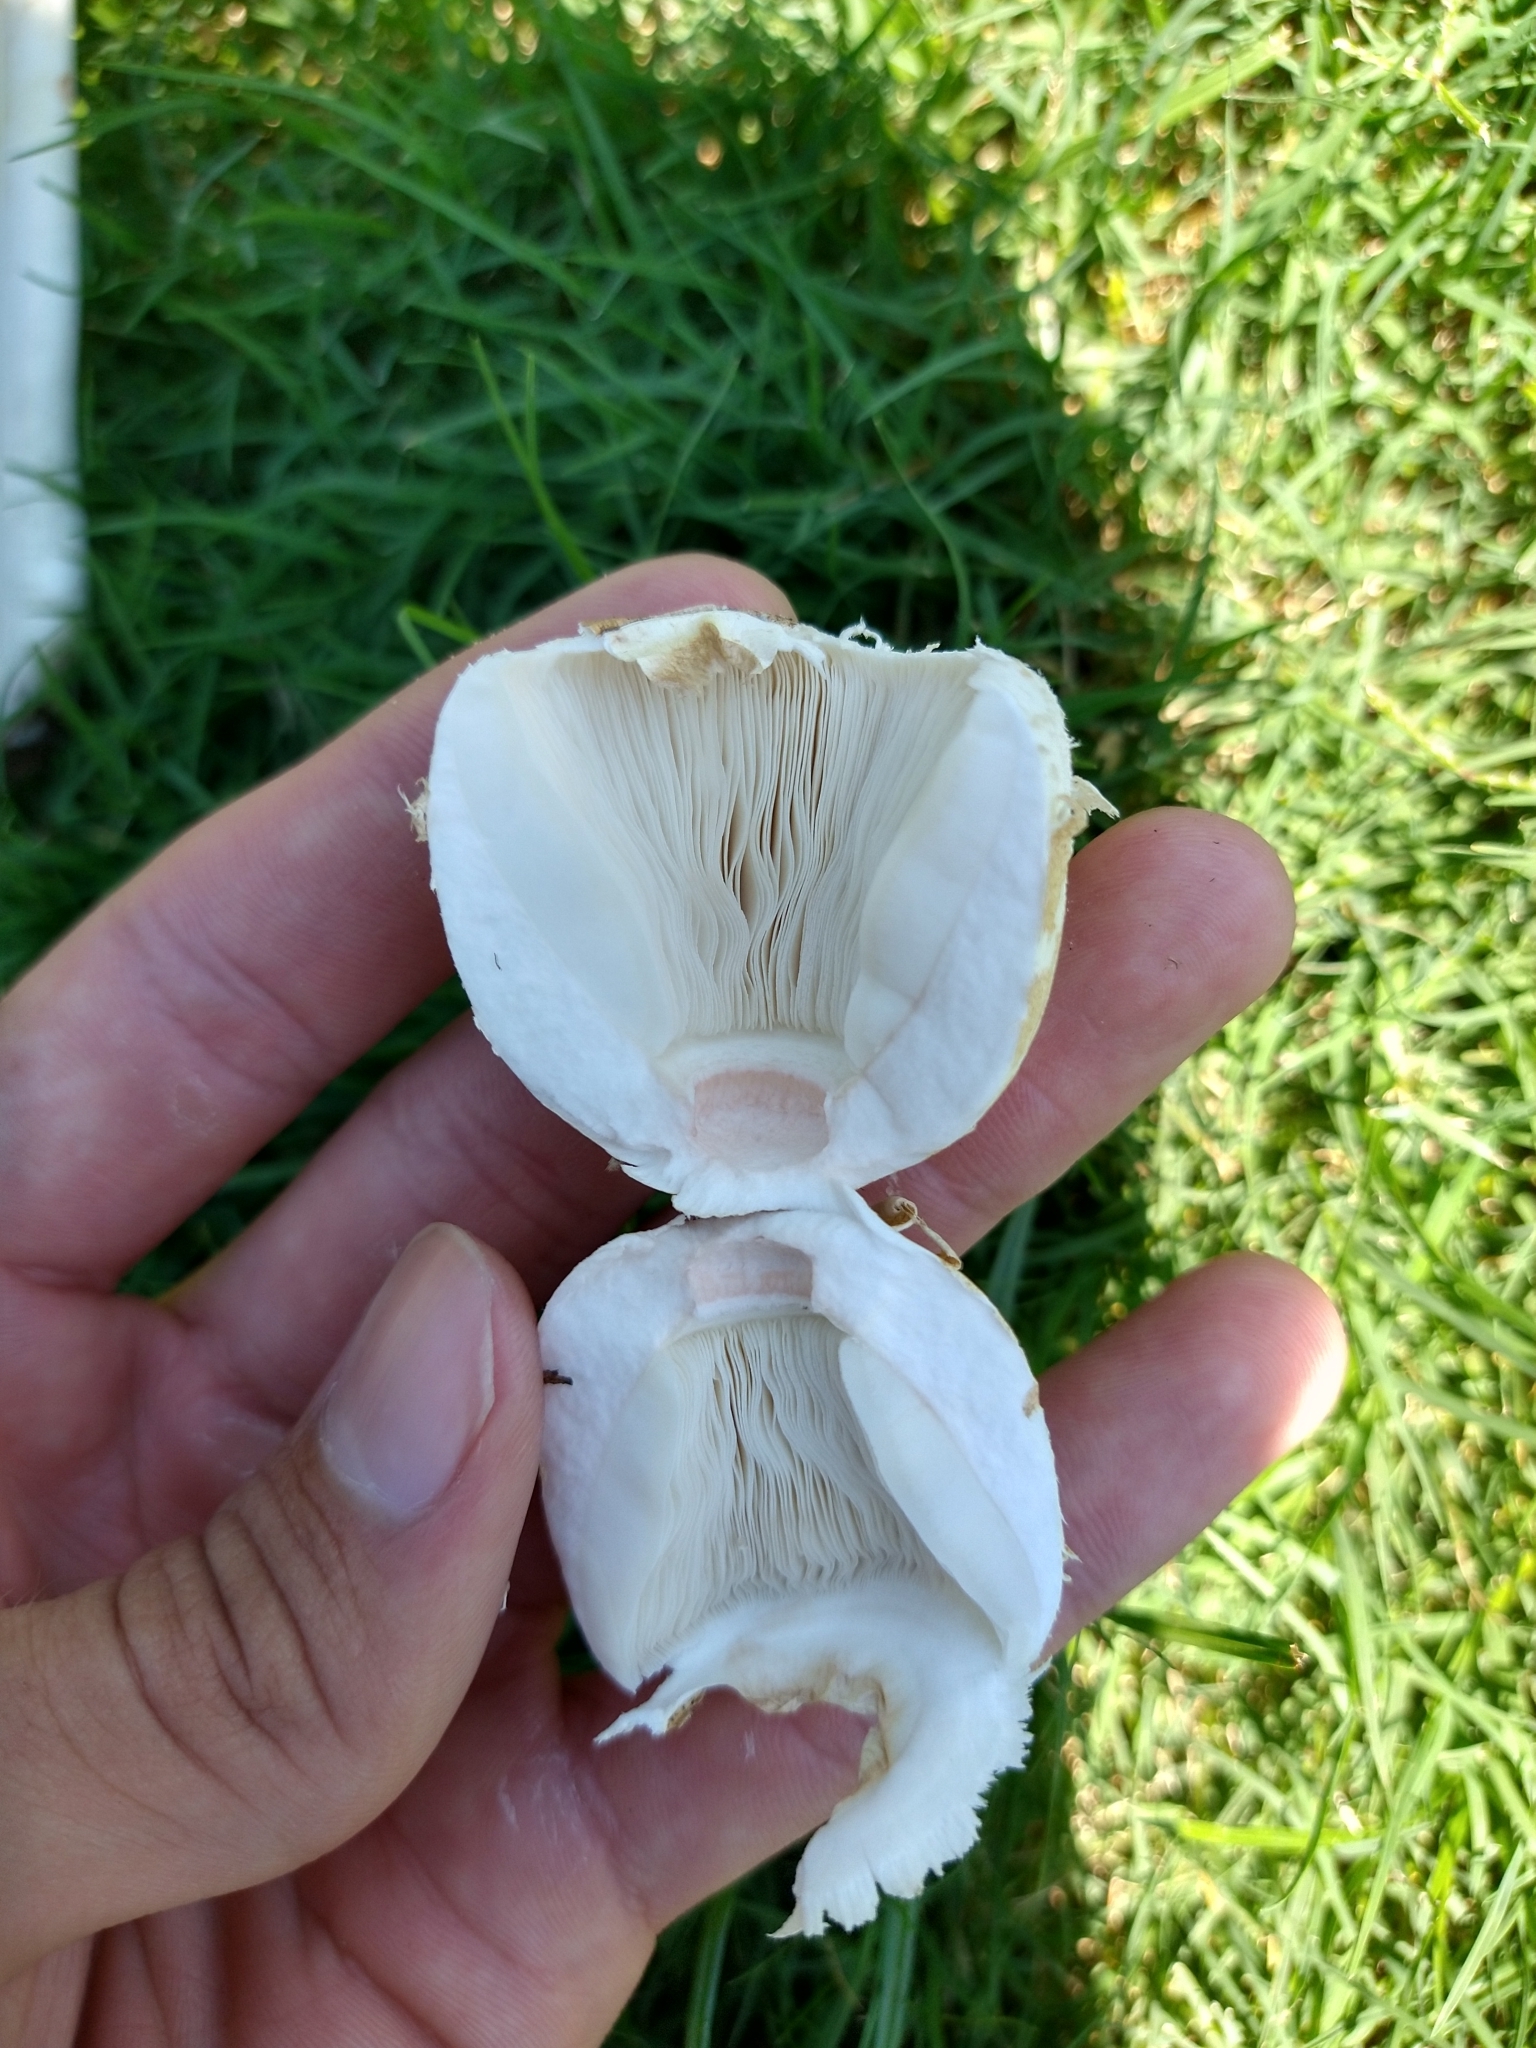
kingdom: Fungi
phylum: Basidiomycota
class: Agaricomycetes
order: Agaricales
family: Agaricaceae
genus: Chlorophyllum
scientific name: Chlorophyllum molybdites
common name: False parasol
